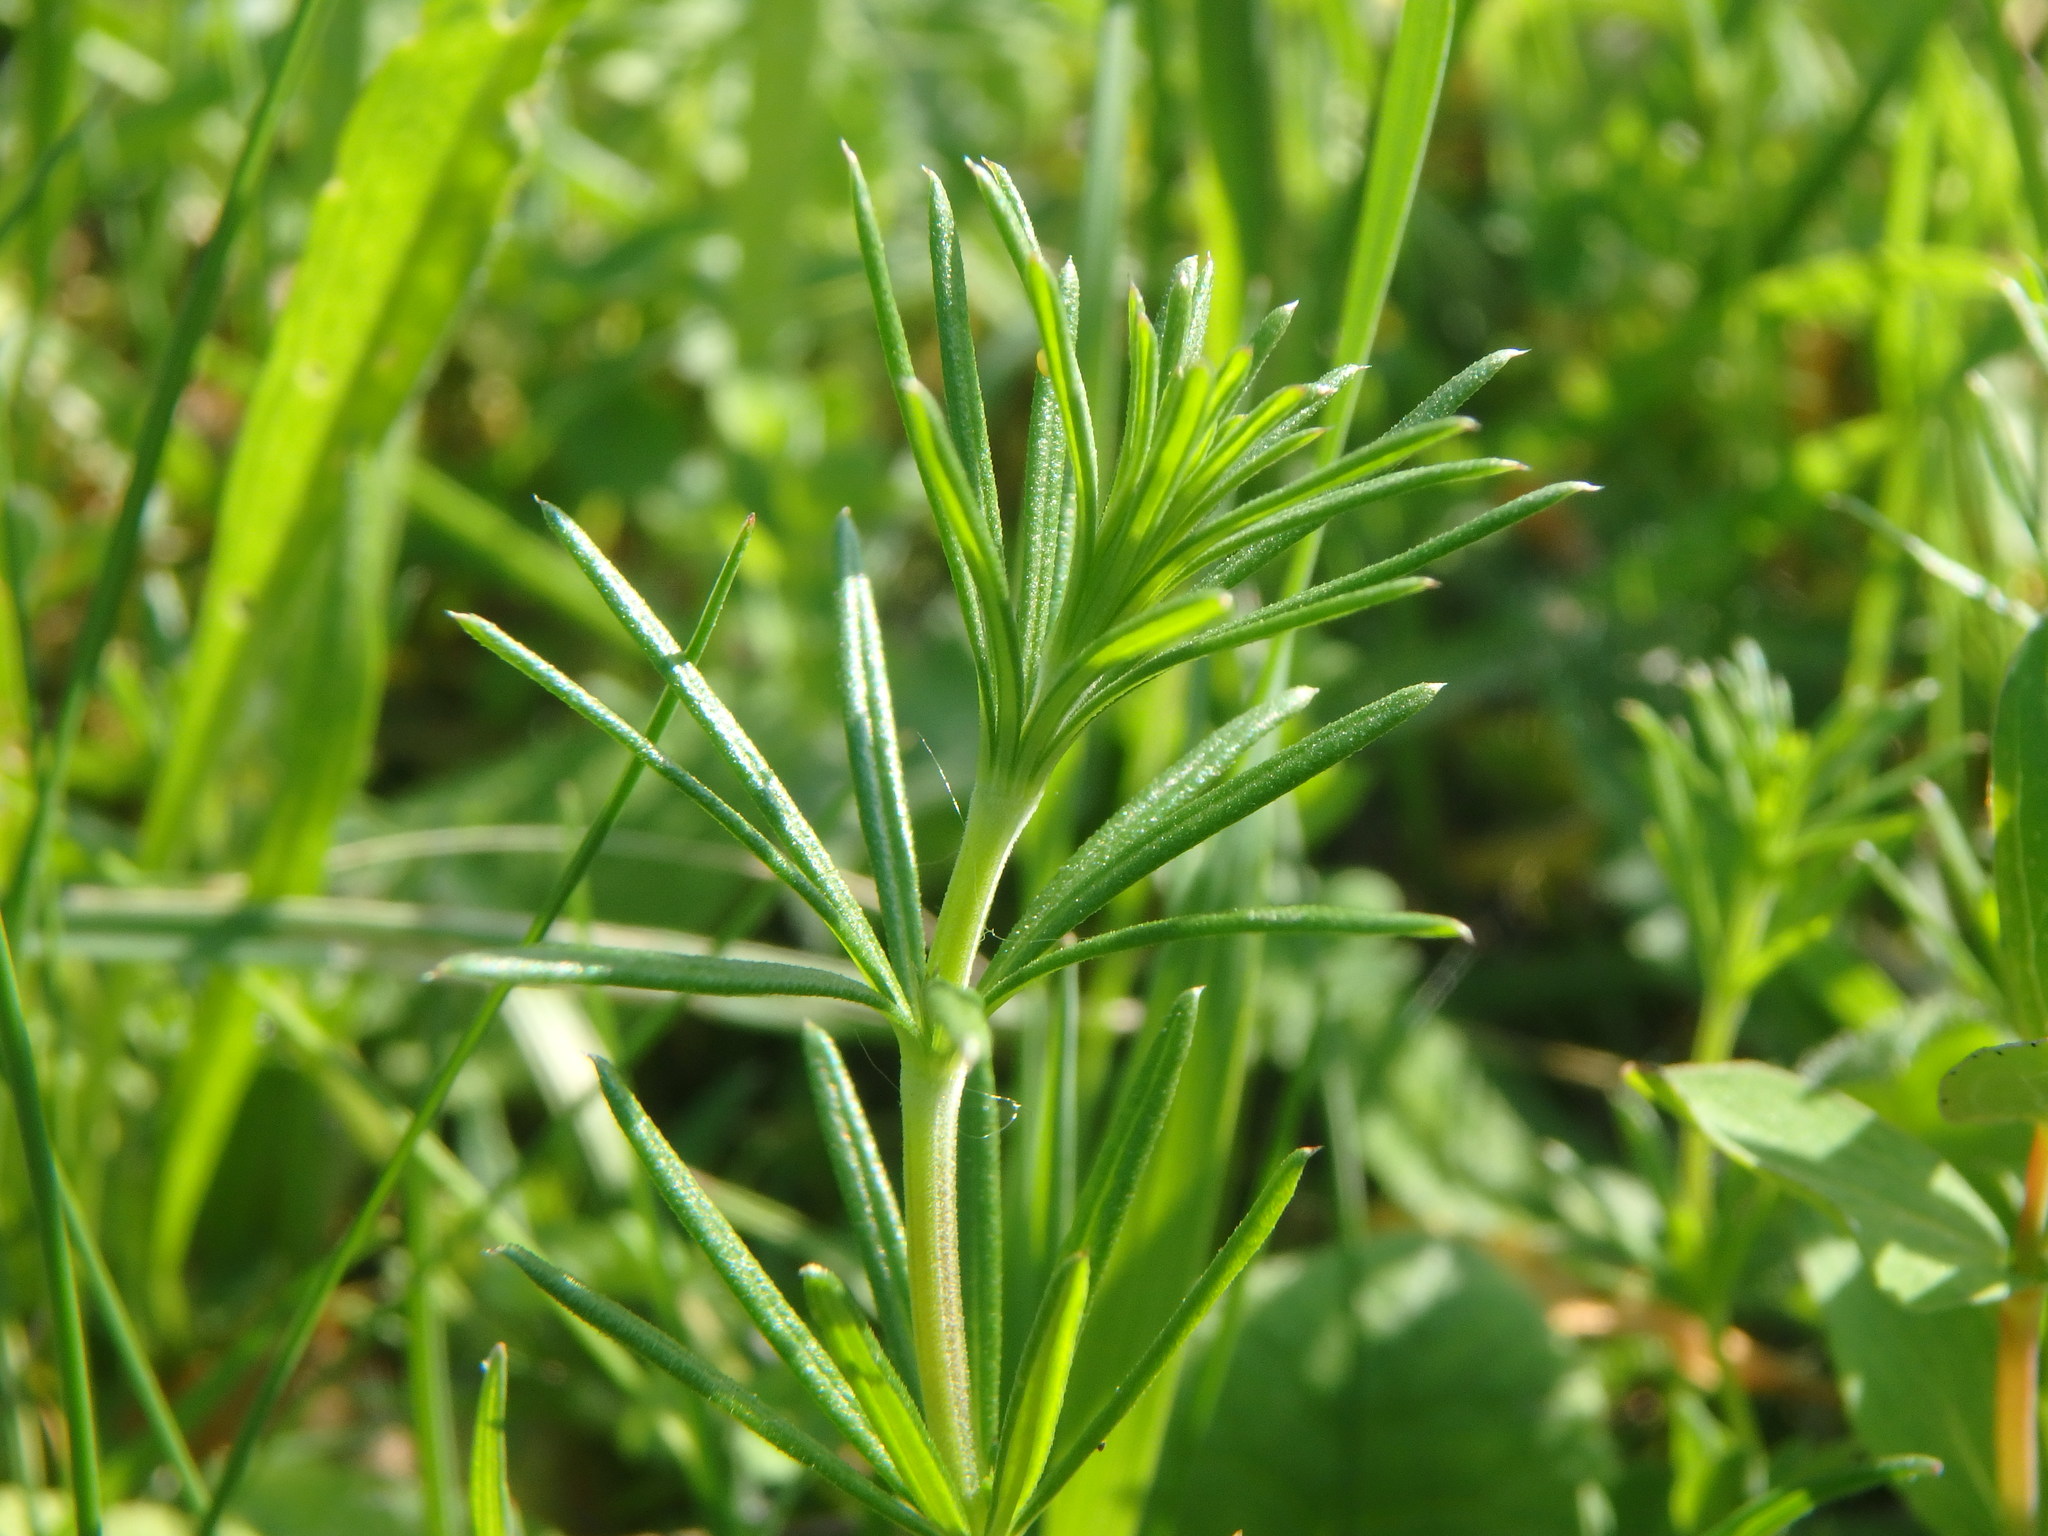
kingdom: Plantae
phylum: Tracheophyta
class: Magnoliopsida
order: Gentianales
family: Rubiaceae
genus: Galium
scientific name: Galium verum
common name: Lady's bedstraw
